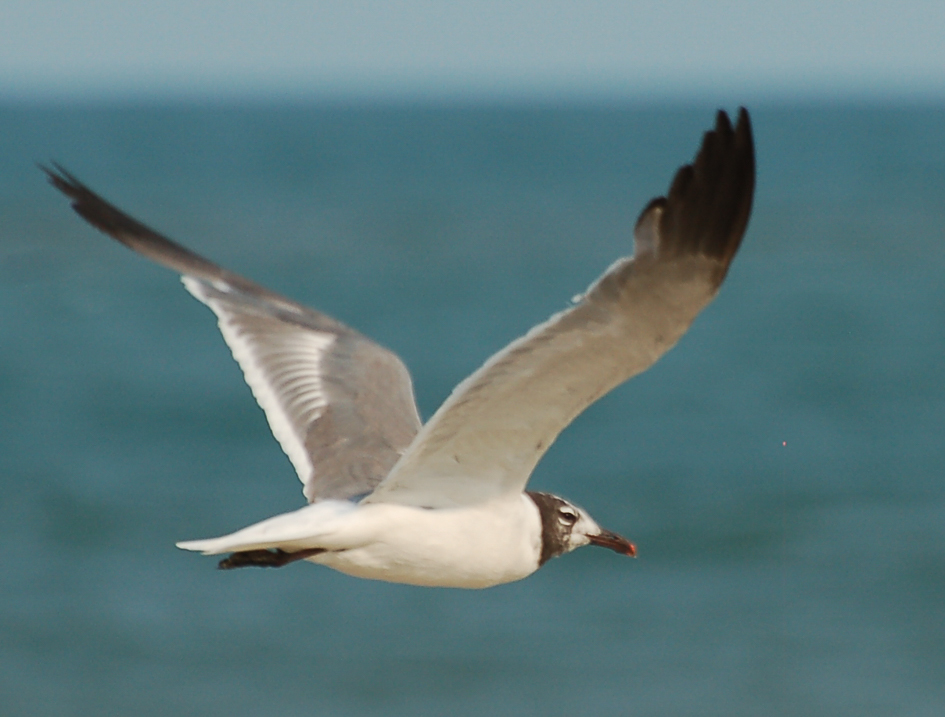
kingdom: Animalia
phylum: Chordata
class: Aves
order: Charadriiformes
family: Laridae
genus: Leucophaeus
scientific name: Leucophaeus atricilla
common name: Laughing gull
